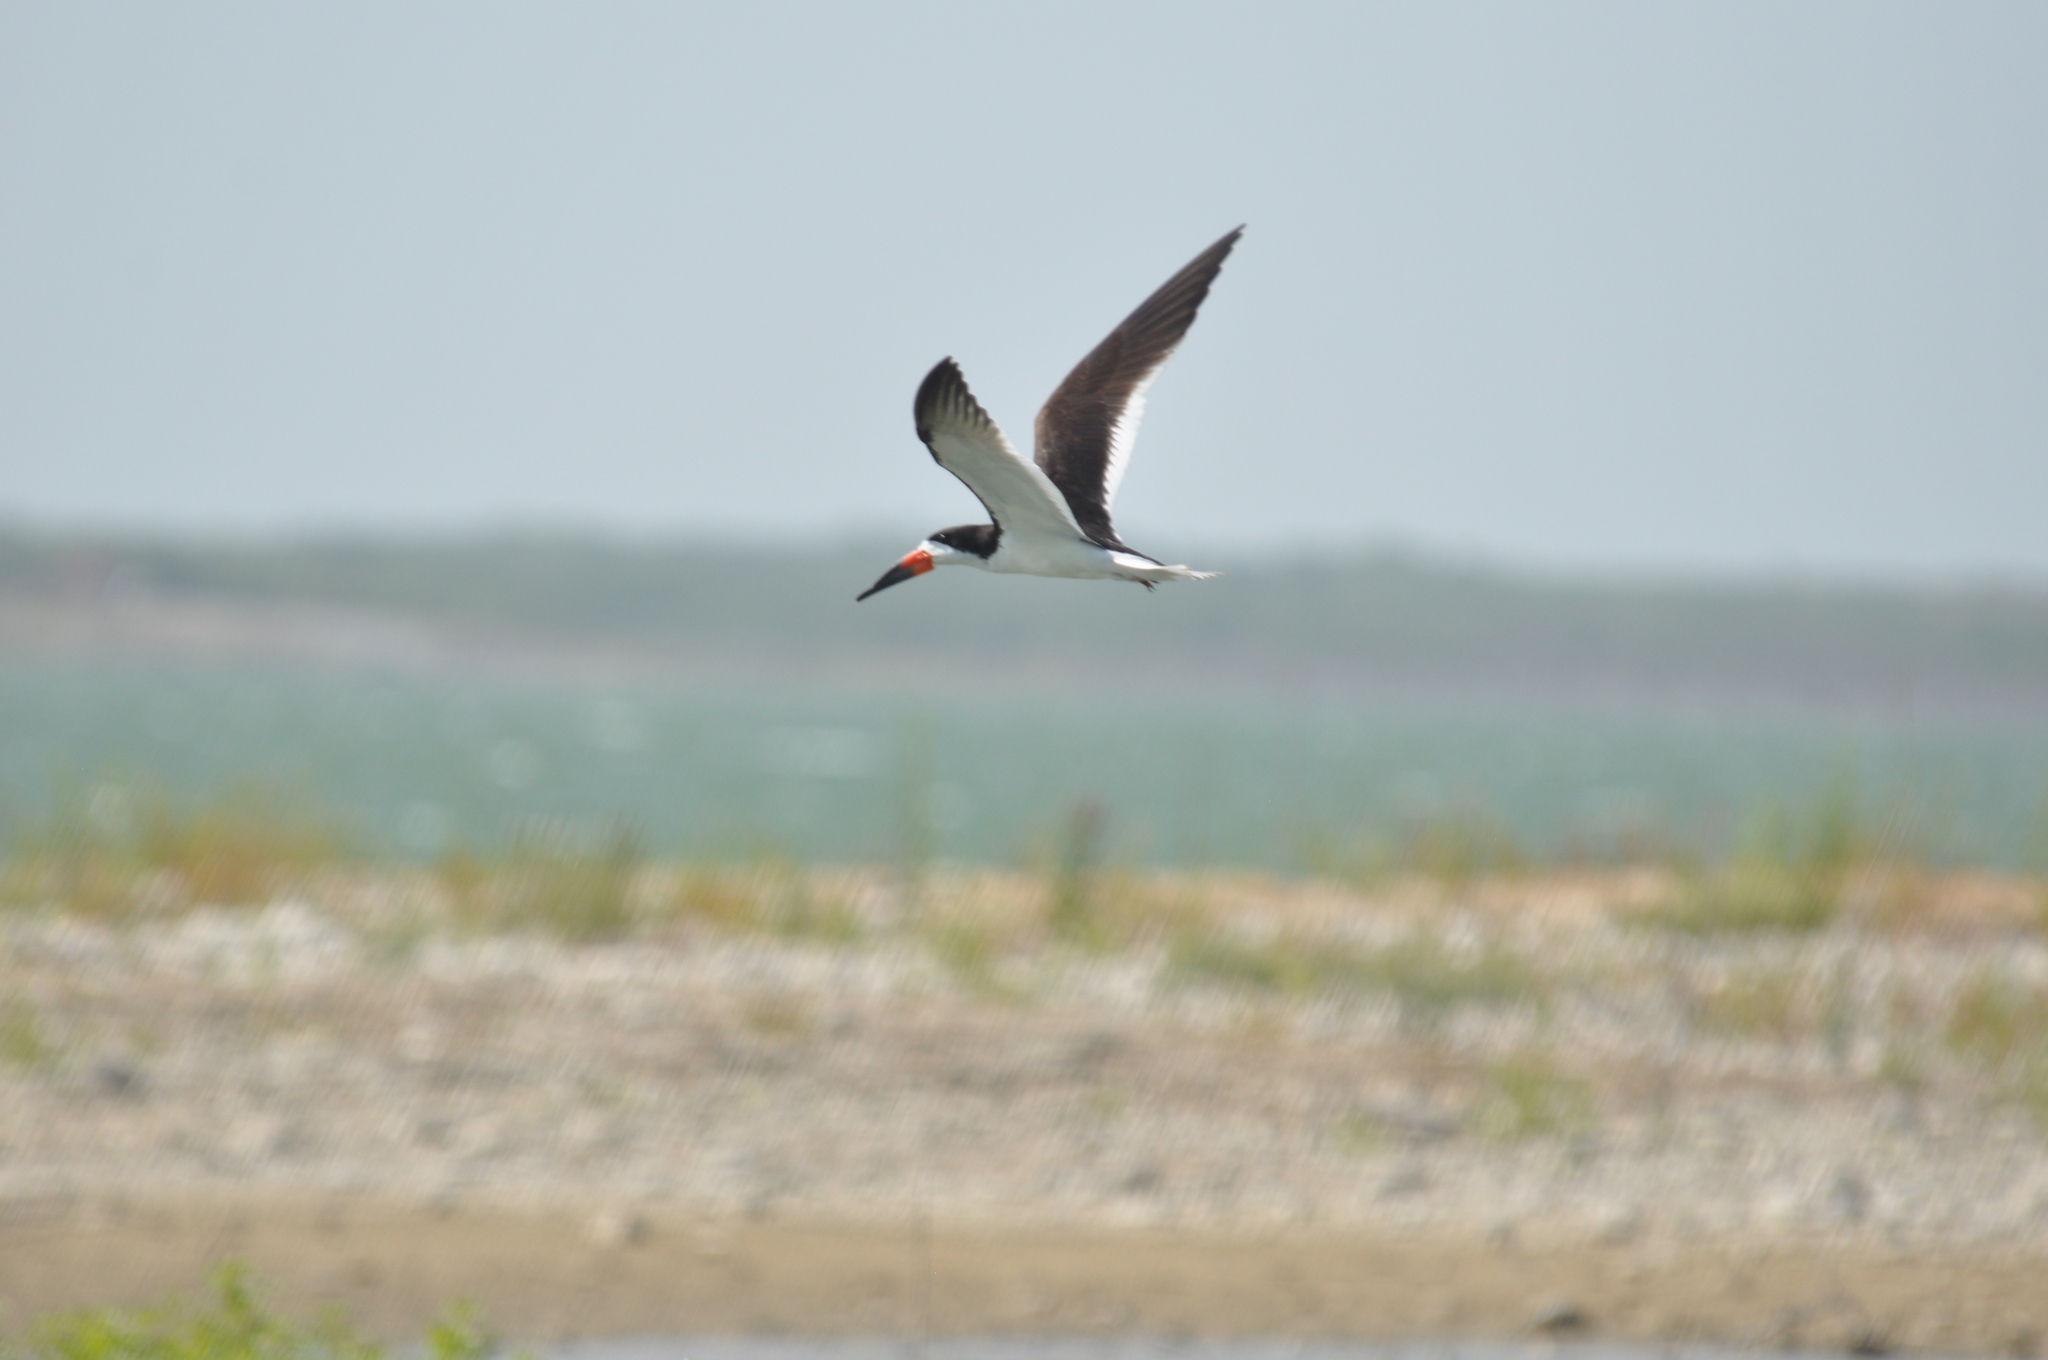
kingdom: Animalia
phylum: Chordata
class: Aves
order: Charadriiformes
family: Laridae
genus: Rynchops
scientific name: Rynchops niger
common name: Black skimmer
